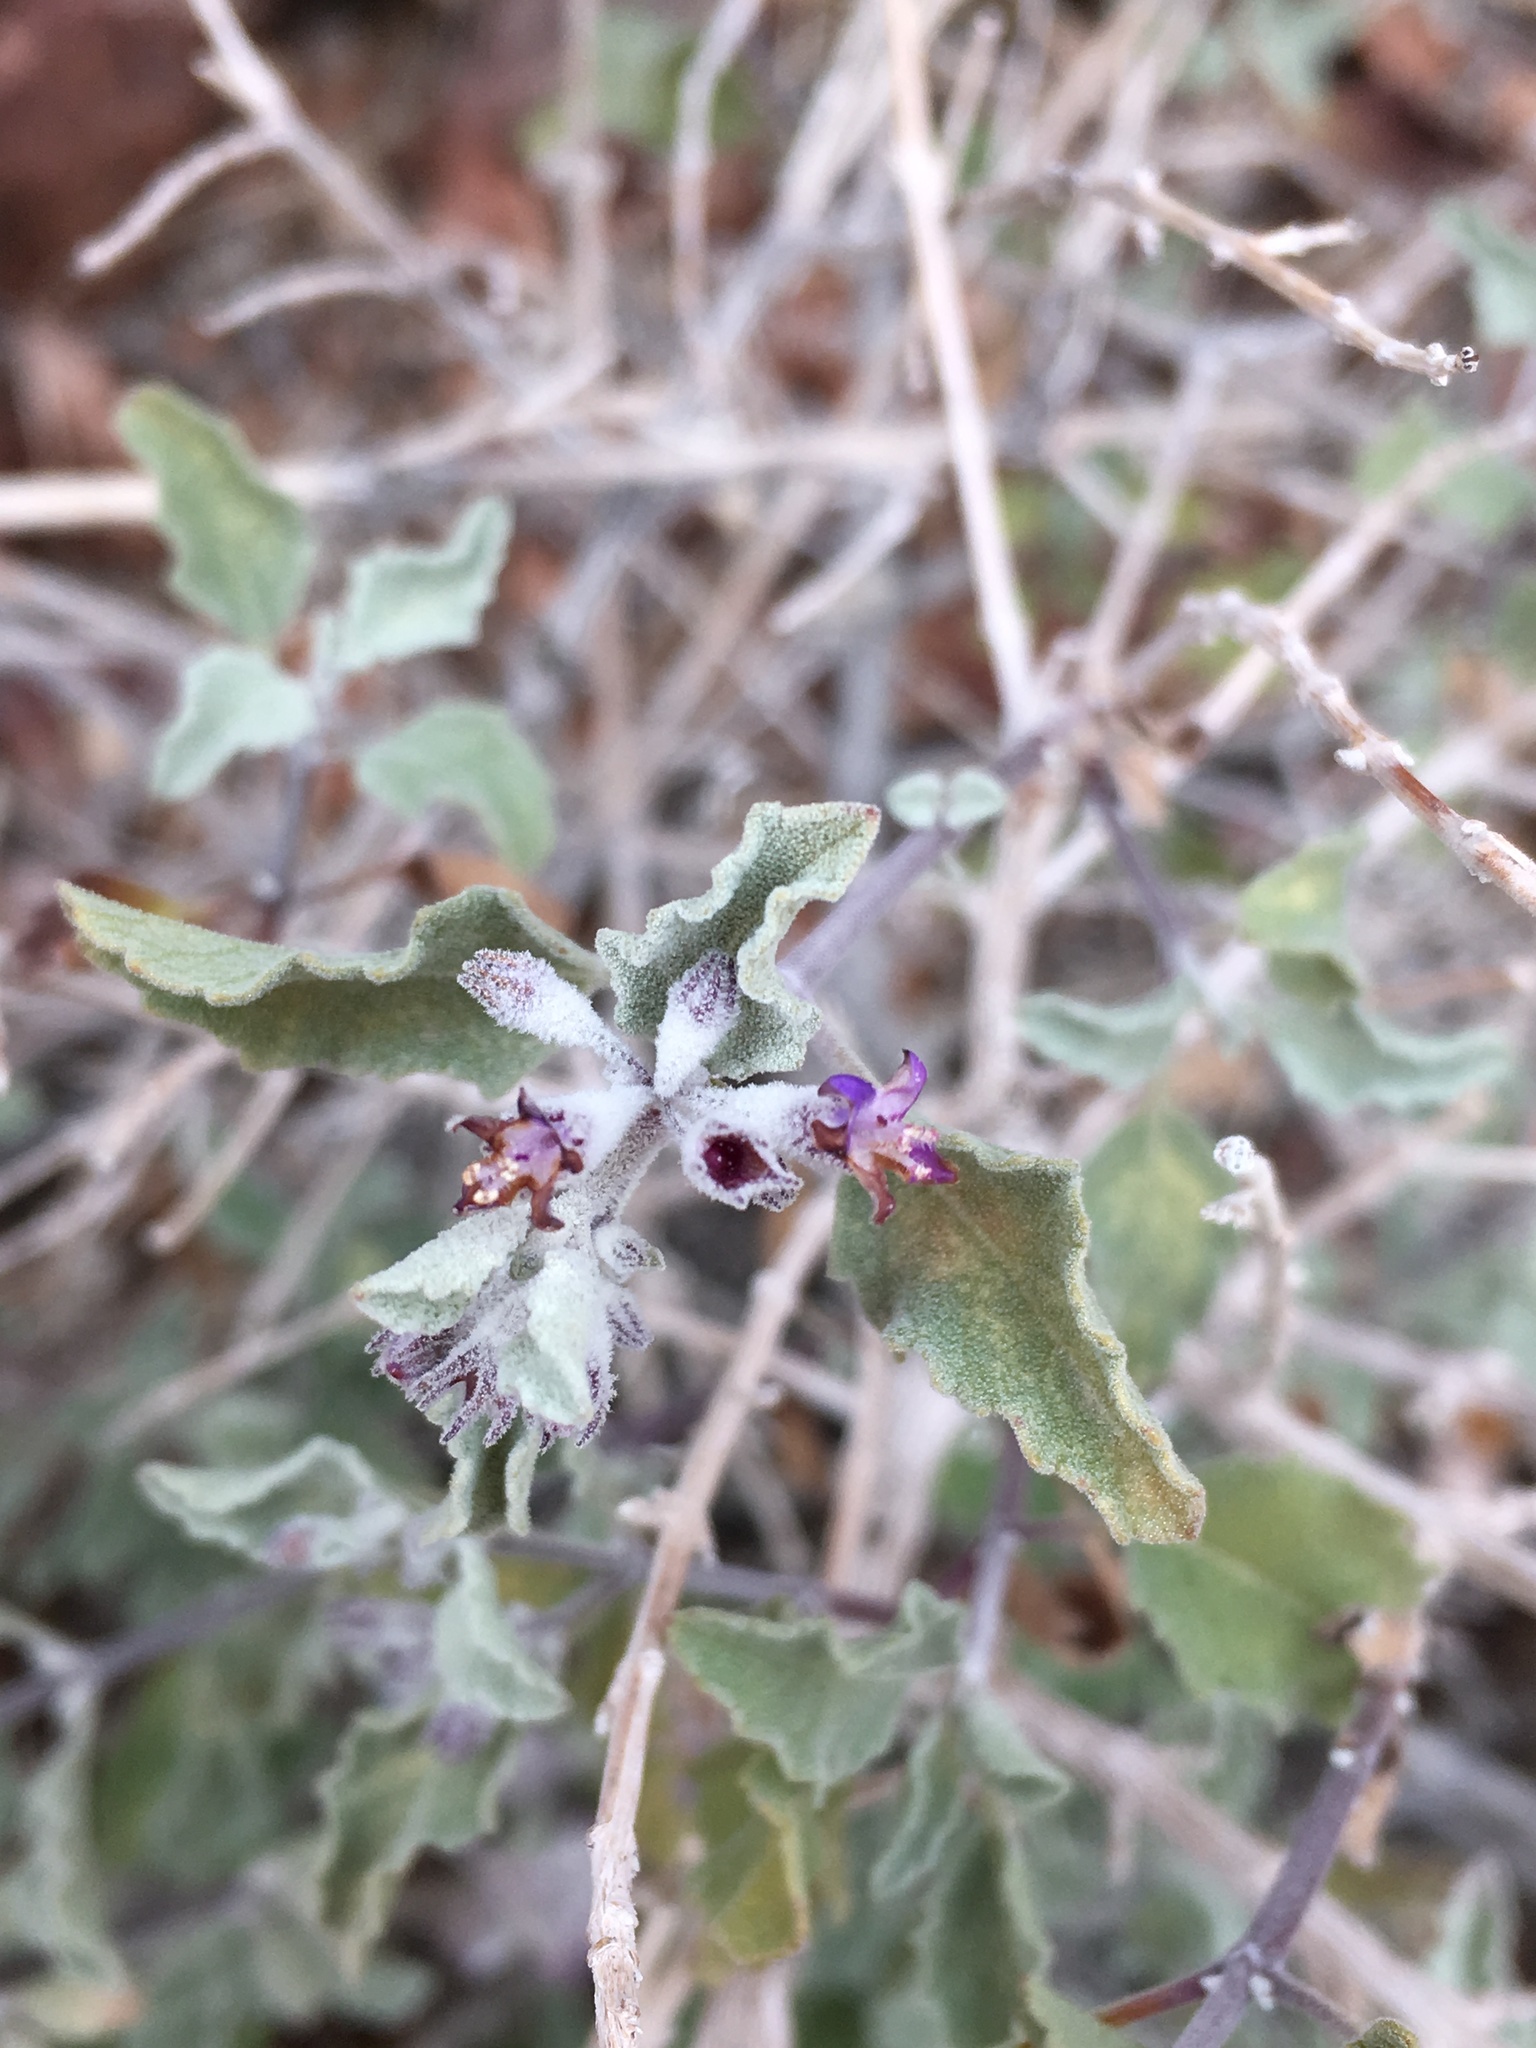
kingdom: Plantae
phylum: Tracheophyta
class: Magnoliopsida
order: Lamiales
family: Lamiaceae
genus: Condea
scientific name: Condea emoryi
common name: Chia
